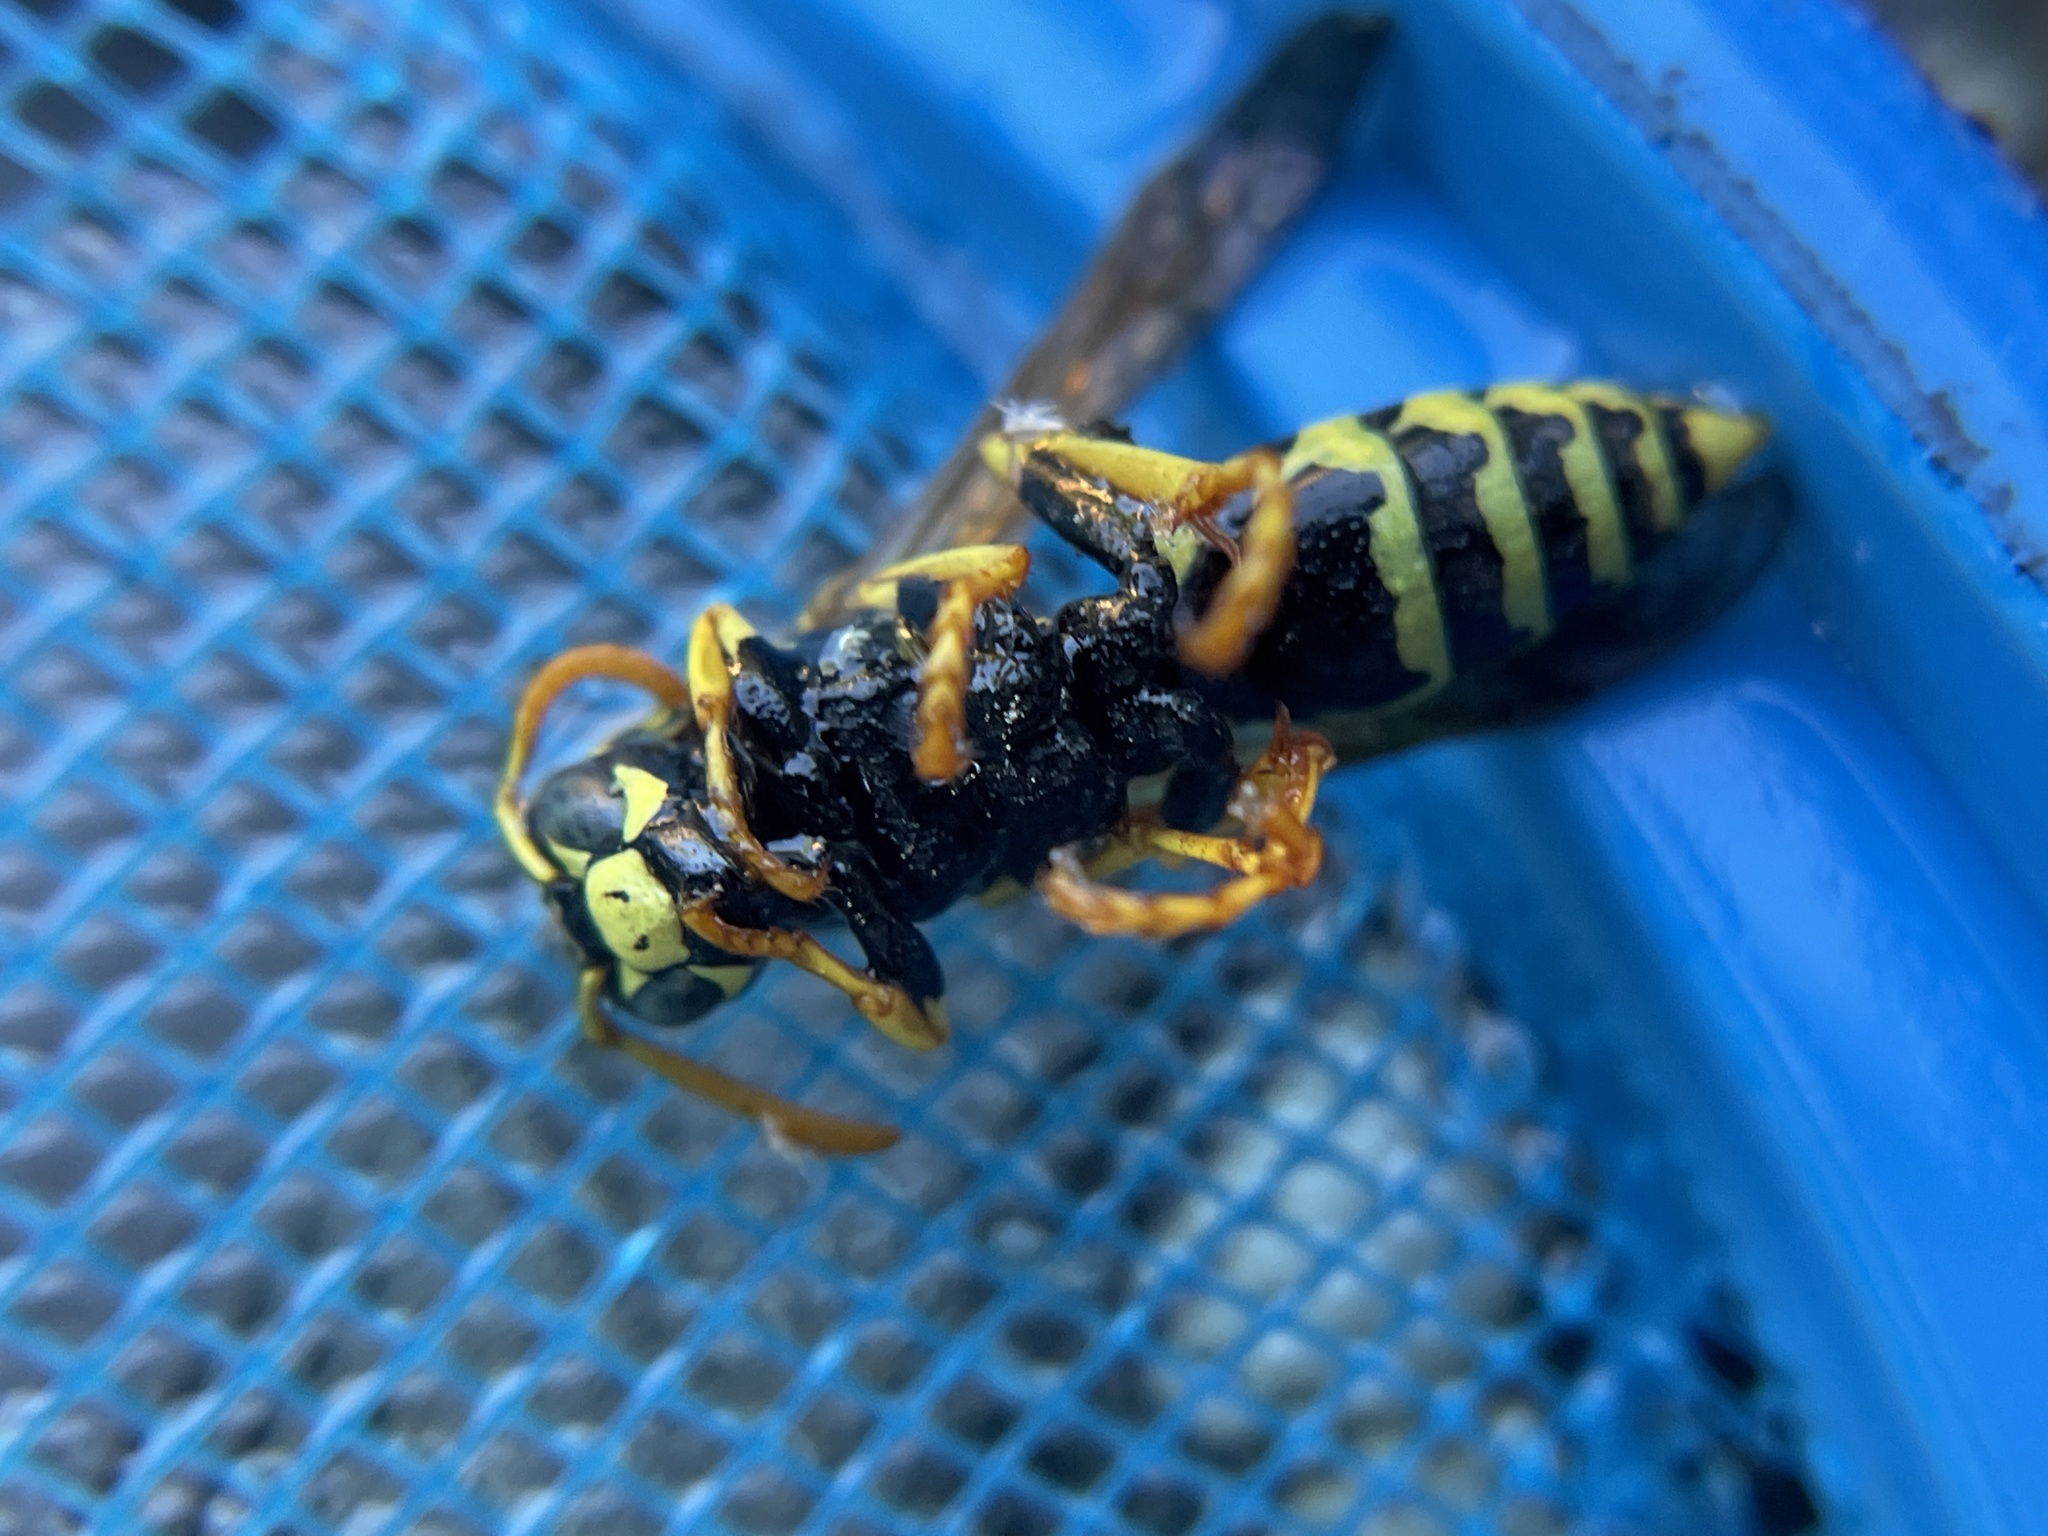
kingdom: Animalia
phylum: Arthropoda
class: Insecta
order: Hymenoptera
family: Eumenidae
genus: Polistes
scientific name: Polistes dominula
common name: Paper wasp
